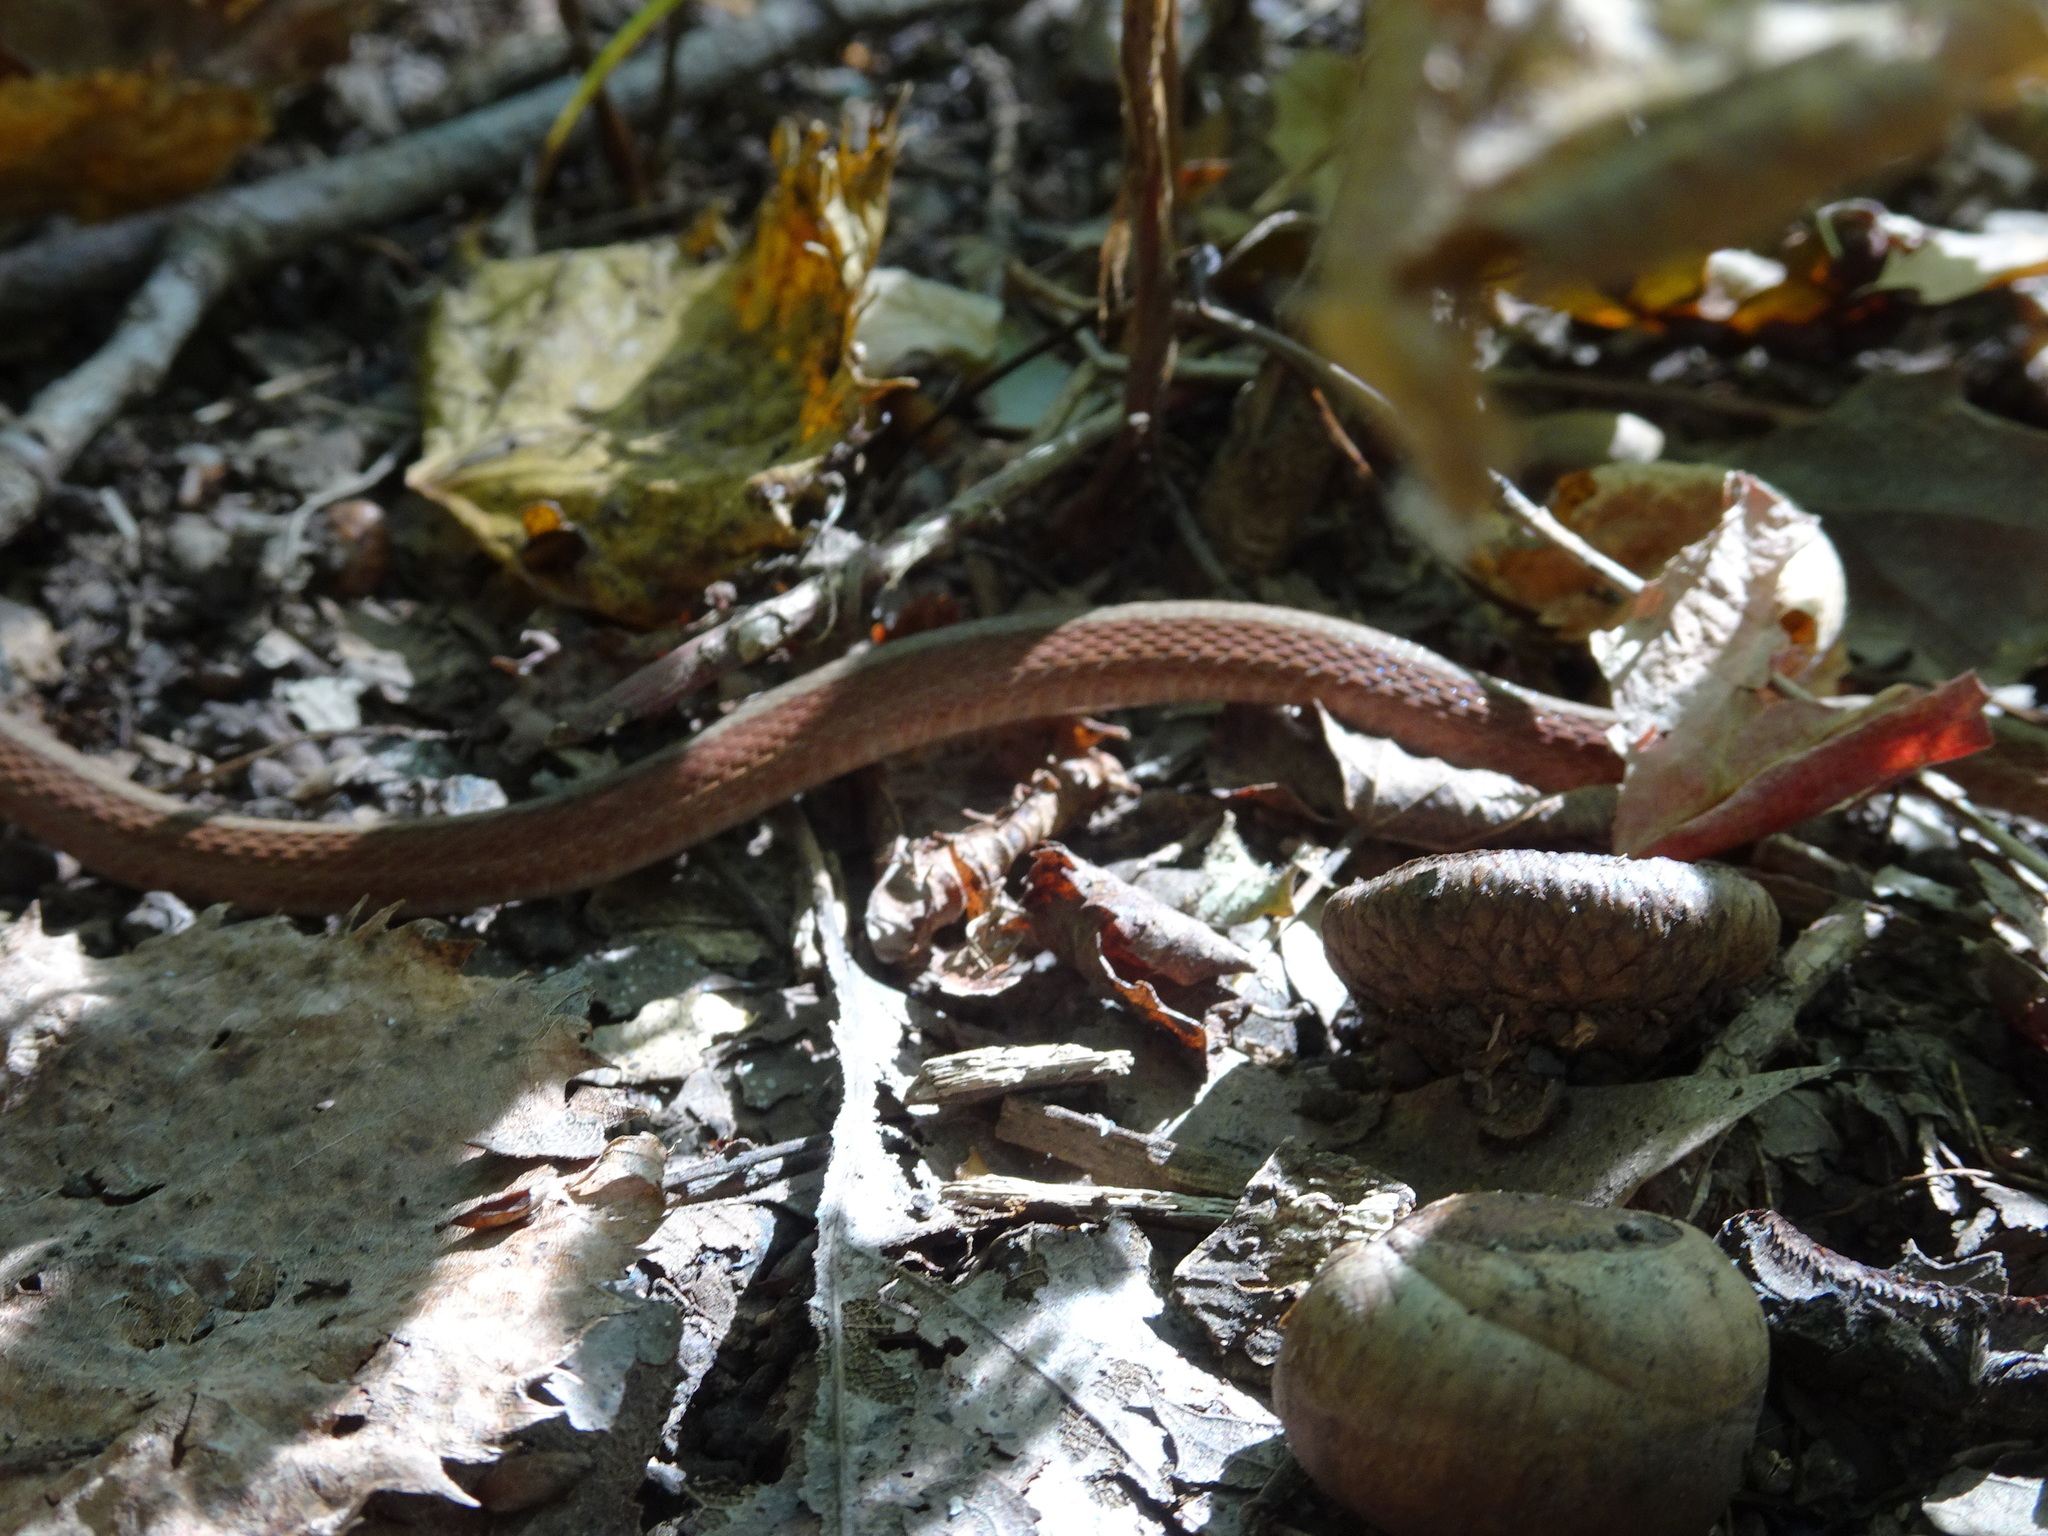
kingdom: Animalia
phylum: Chordata
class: Squamata
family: Colubridae
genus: Storeria
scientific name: Storeria dekayi
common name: (dekay’s) brown snake
